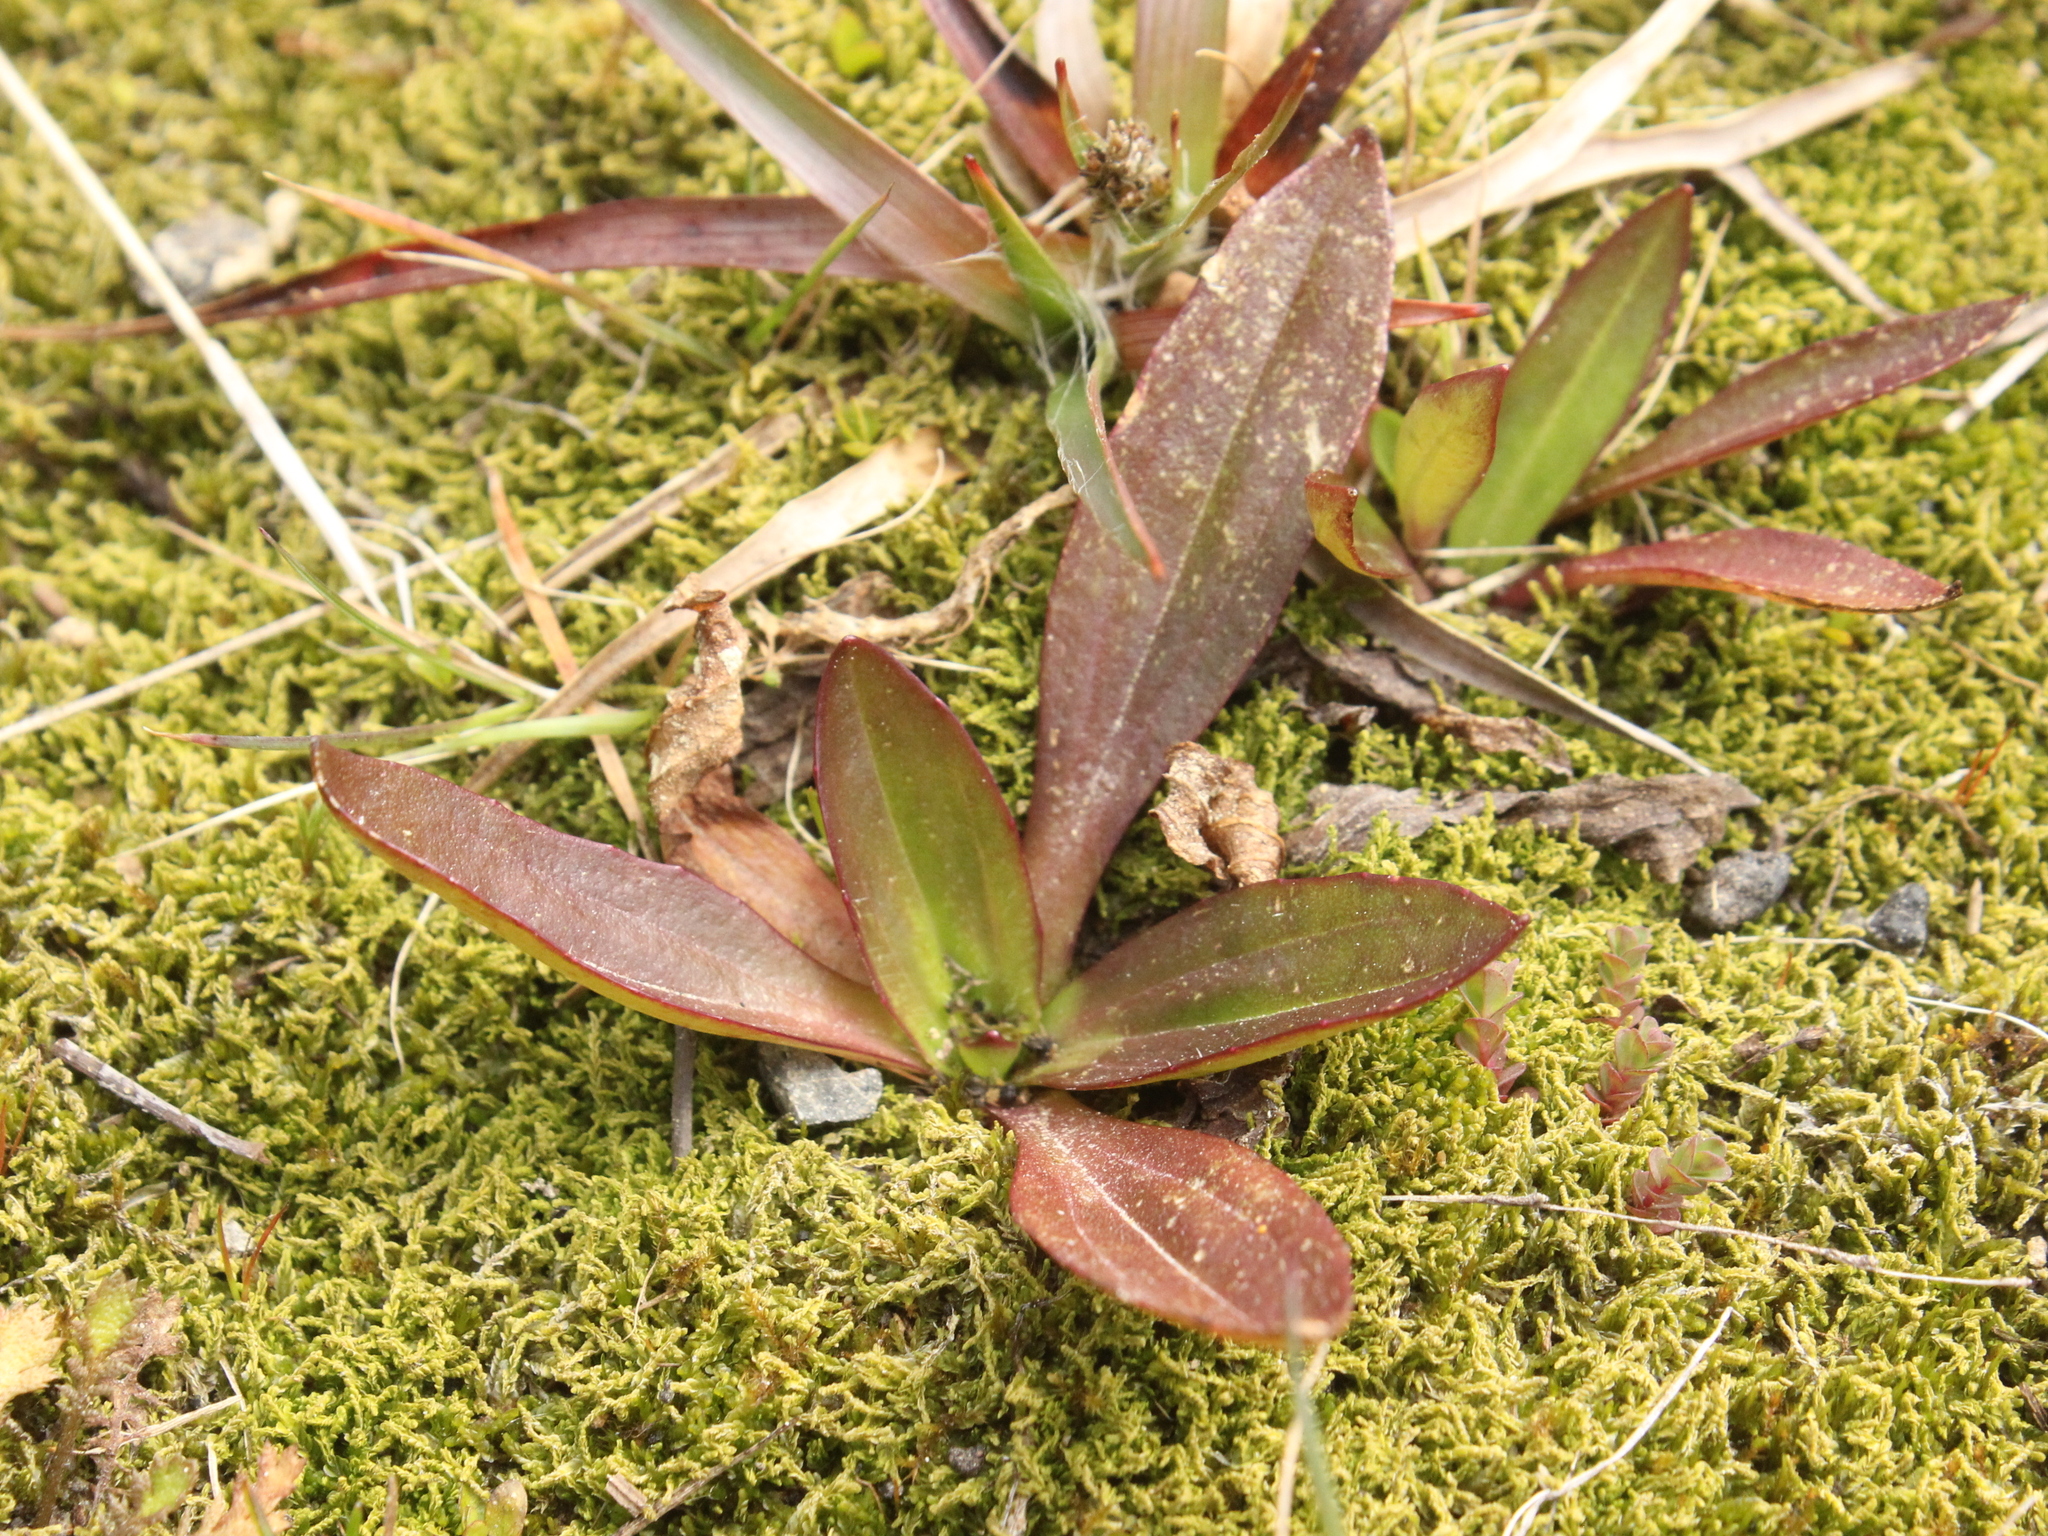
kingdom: Plantae
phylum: Tracheophyta
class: Magnoliopsida
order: Lamiales
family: Plantaginaceae
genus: Plantago
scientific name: Plantago australis
